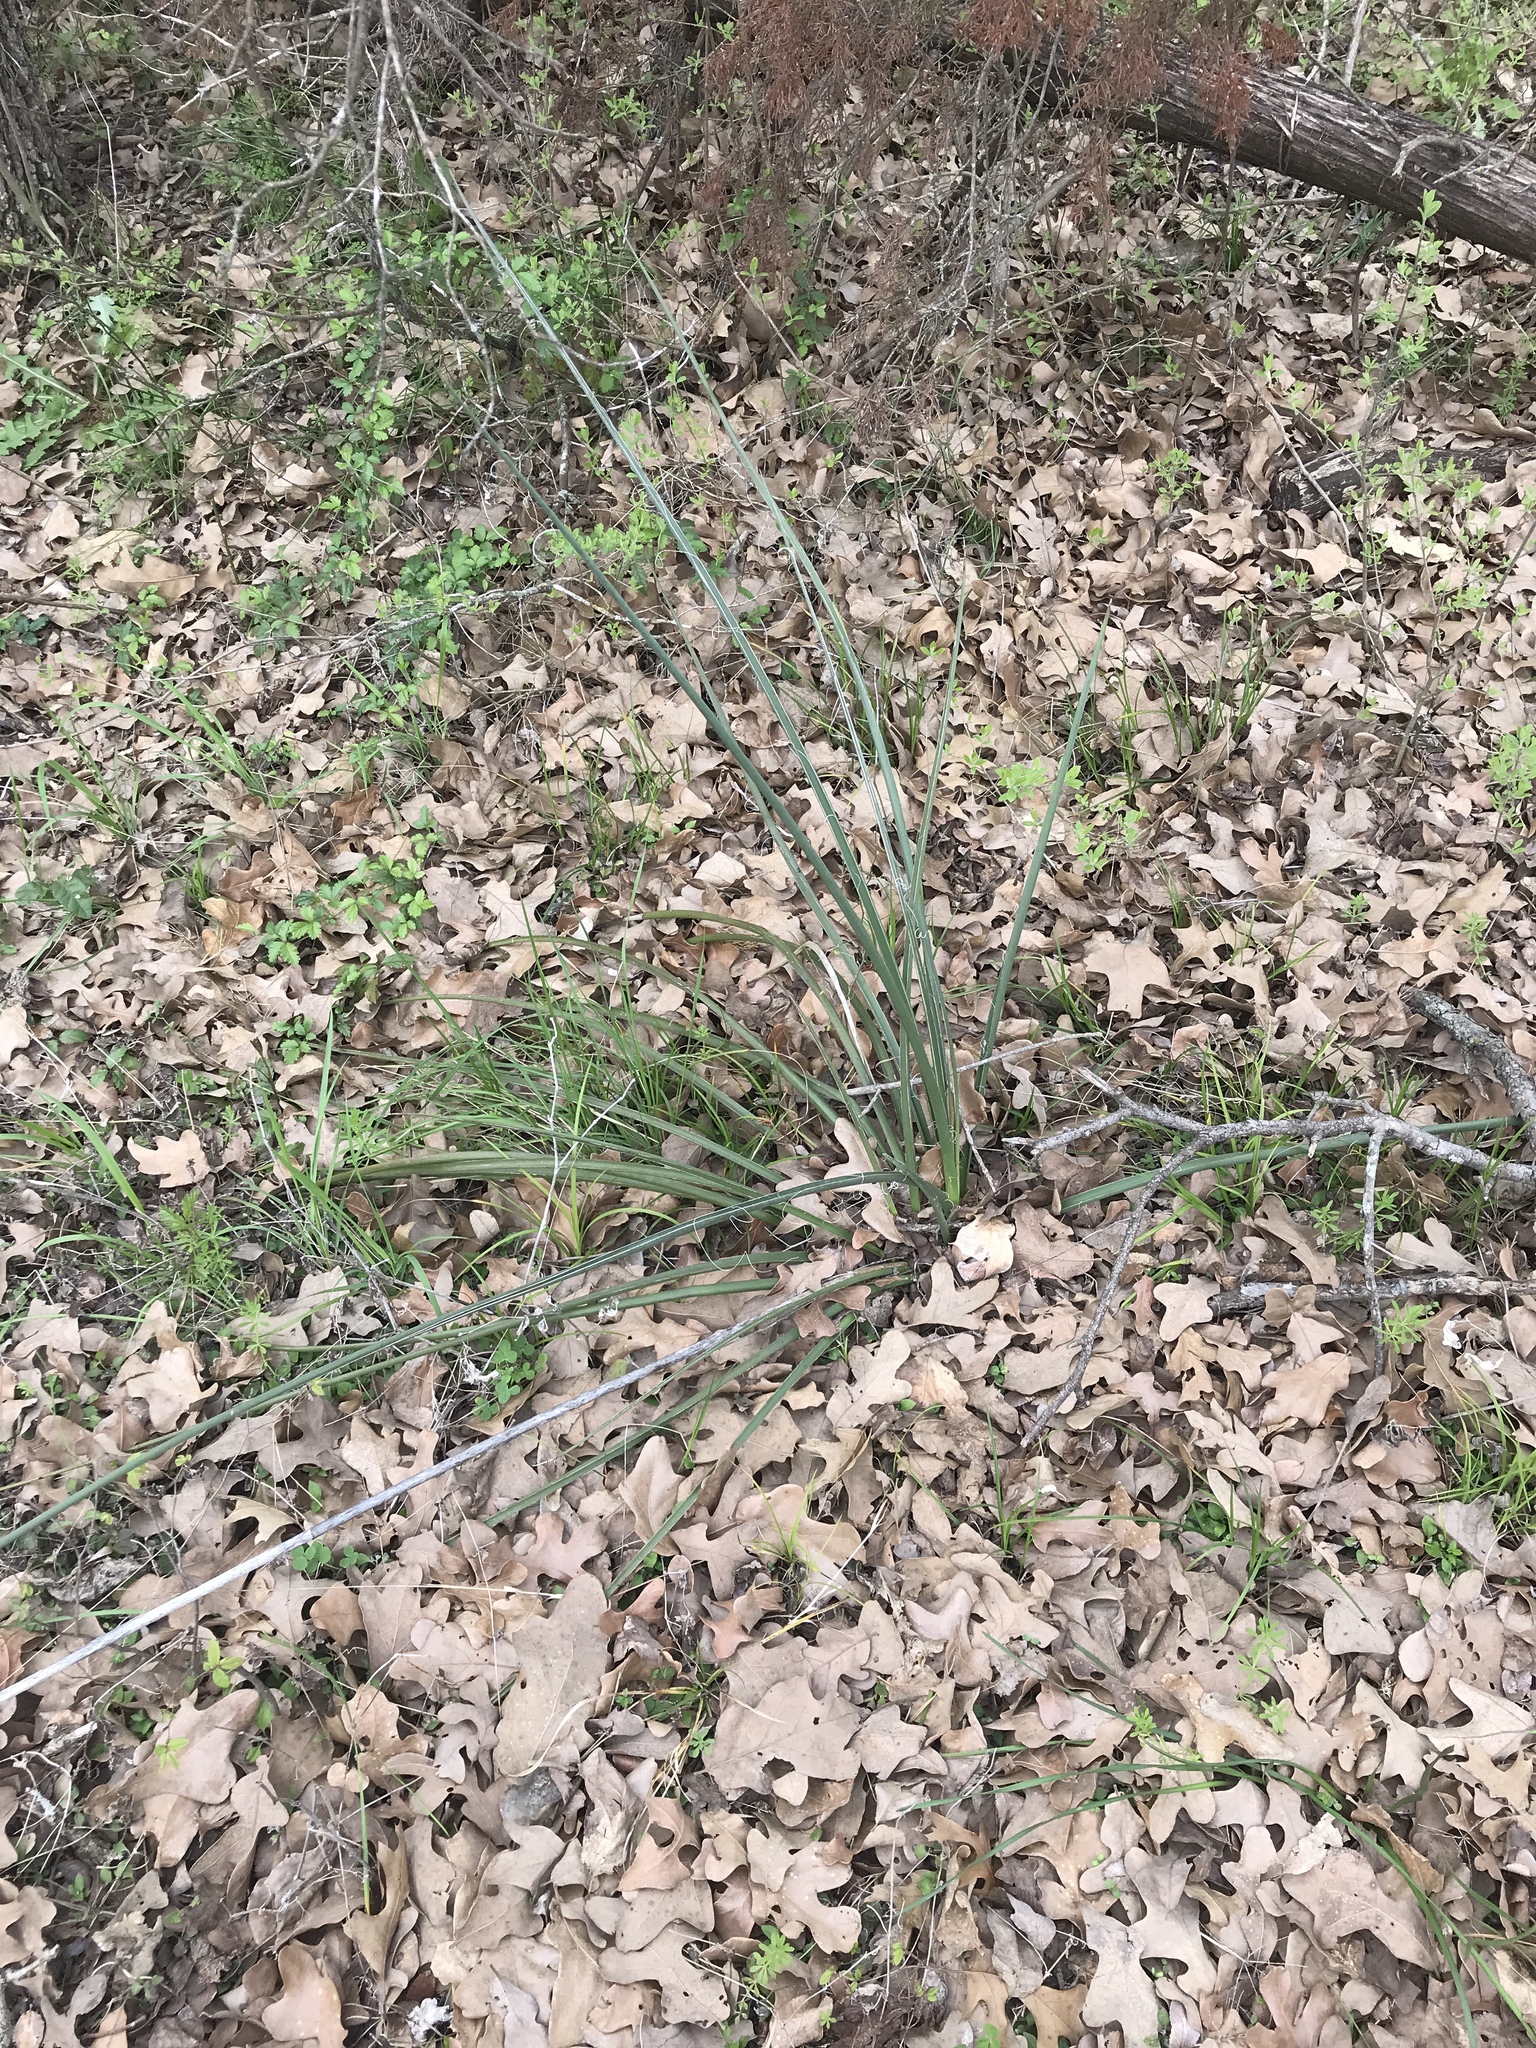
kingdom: Plantae
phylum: Tracheophyta
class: Liliopsida
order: Asparagales
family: Asparagaceae
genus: Hesperaloe
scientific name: Hesperaloe parviflora
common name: Red hesperaloe
